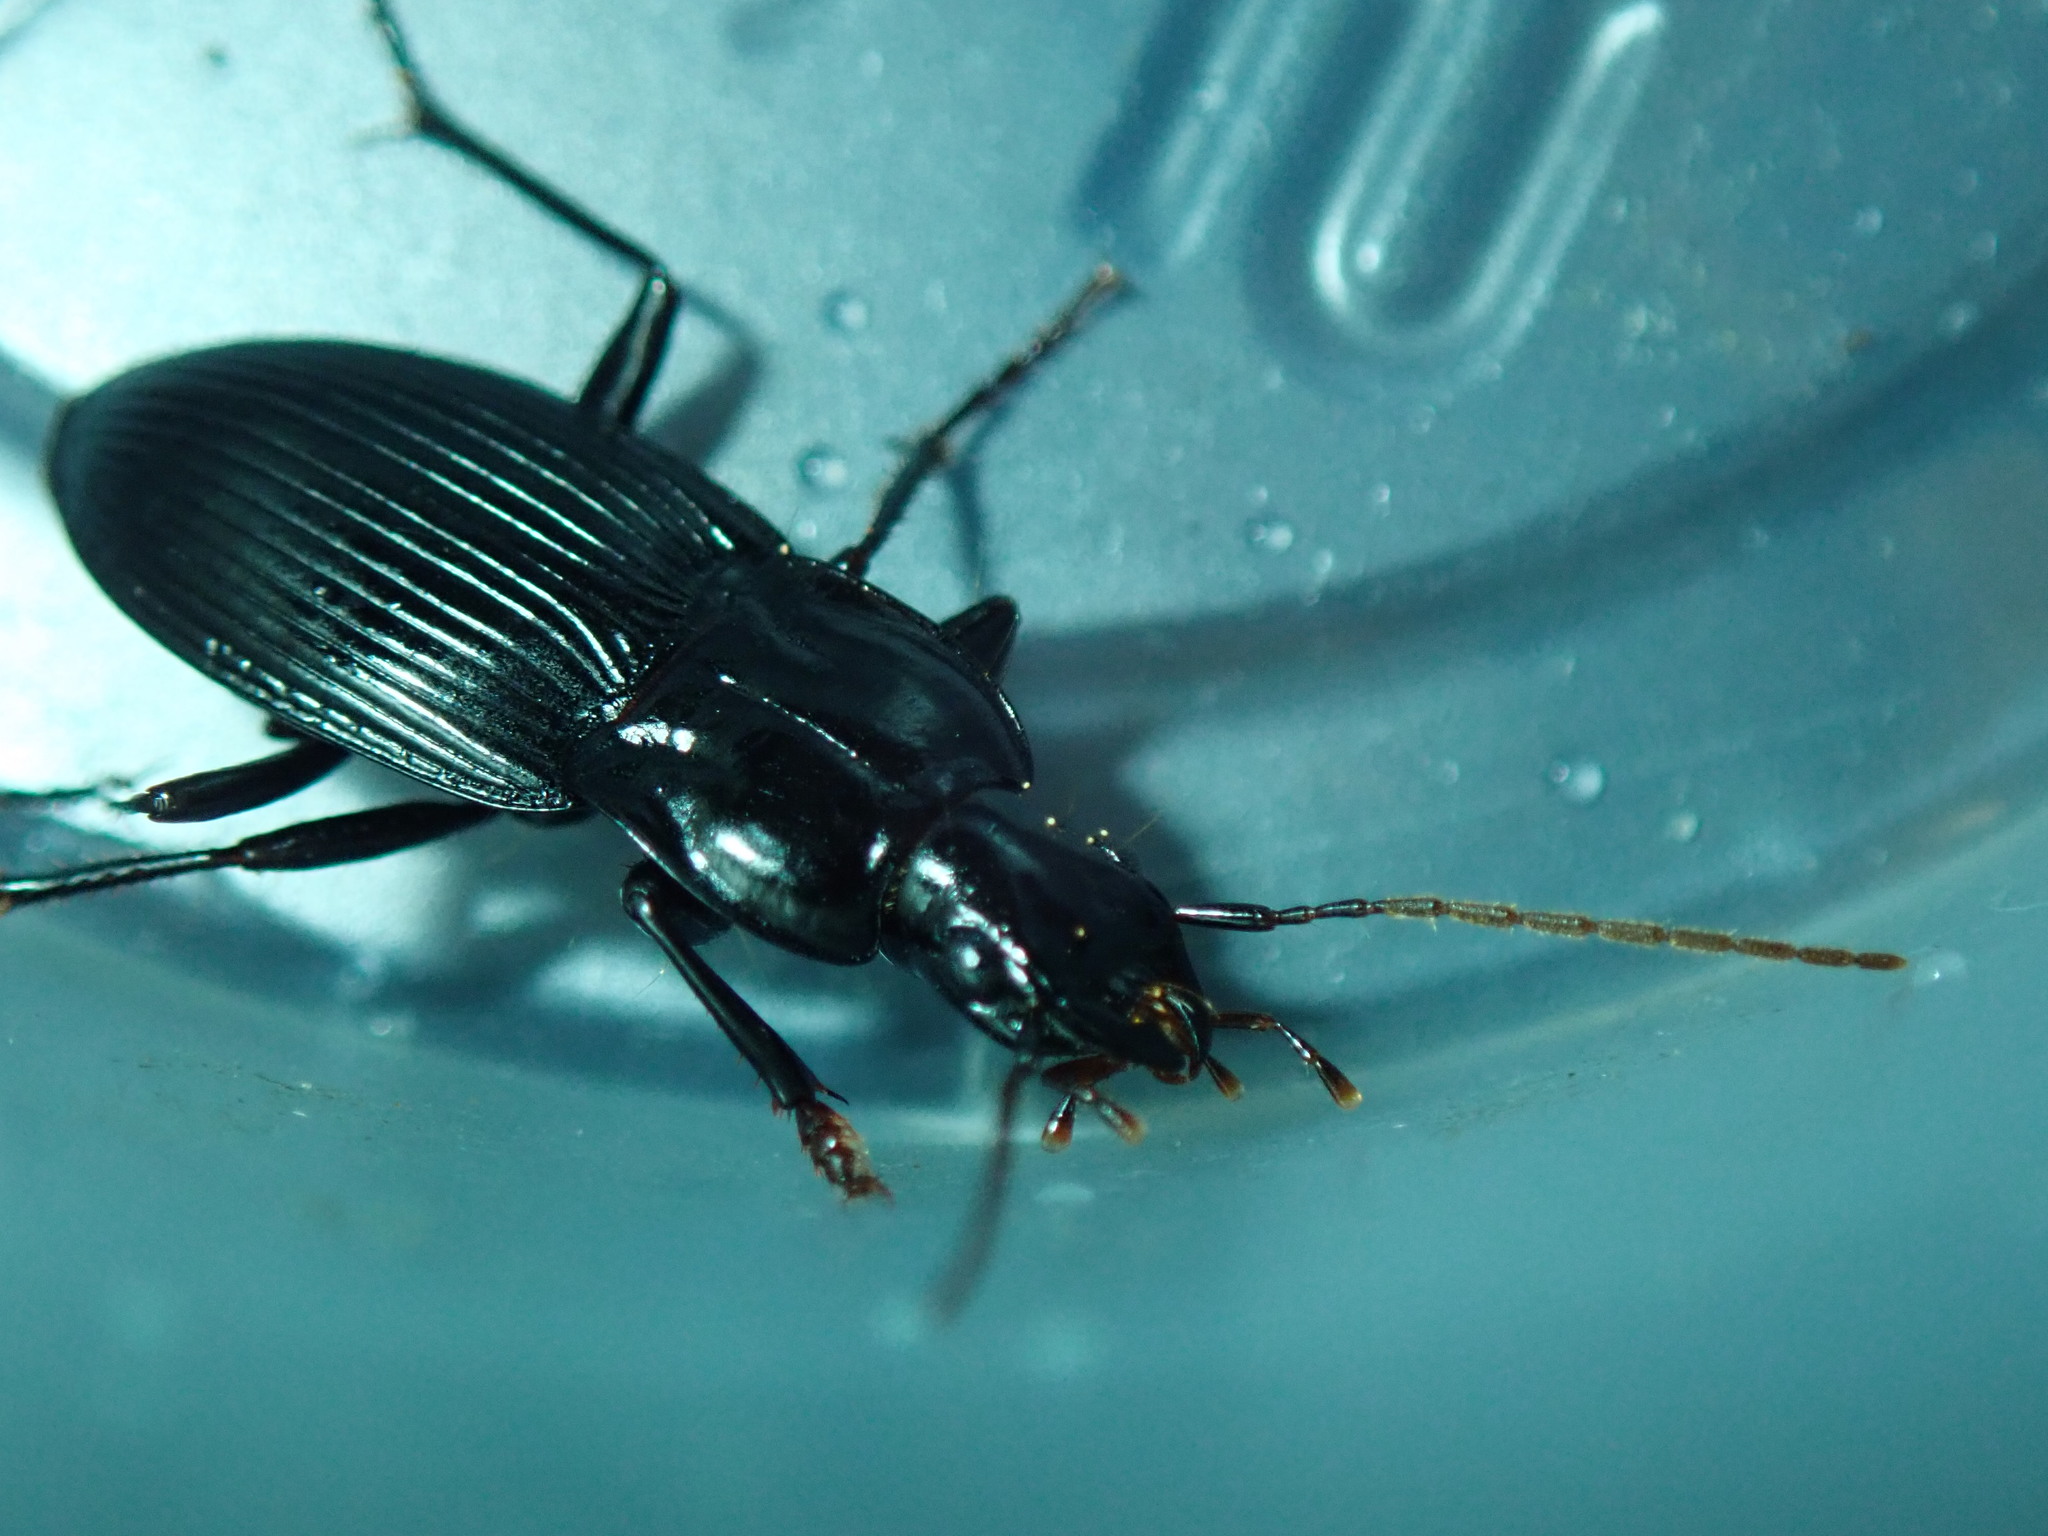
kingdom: Animalia
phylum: Arthropoda
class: Insecta
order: Coleoptera
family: Carabidae
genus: Dicaelus
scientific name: Dicaelus politus
